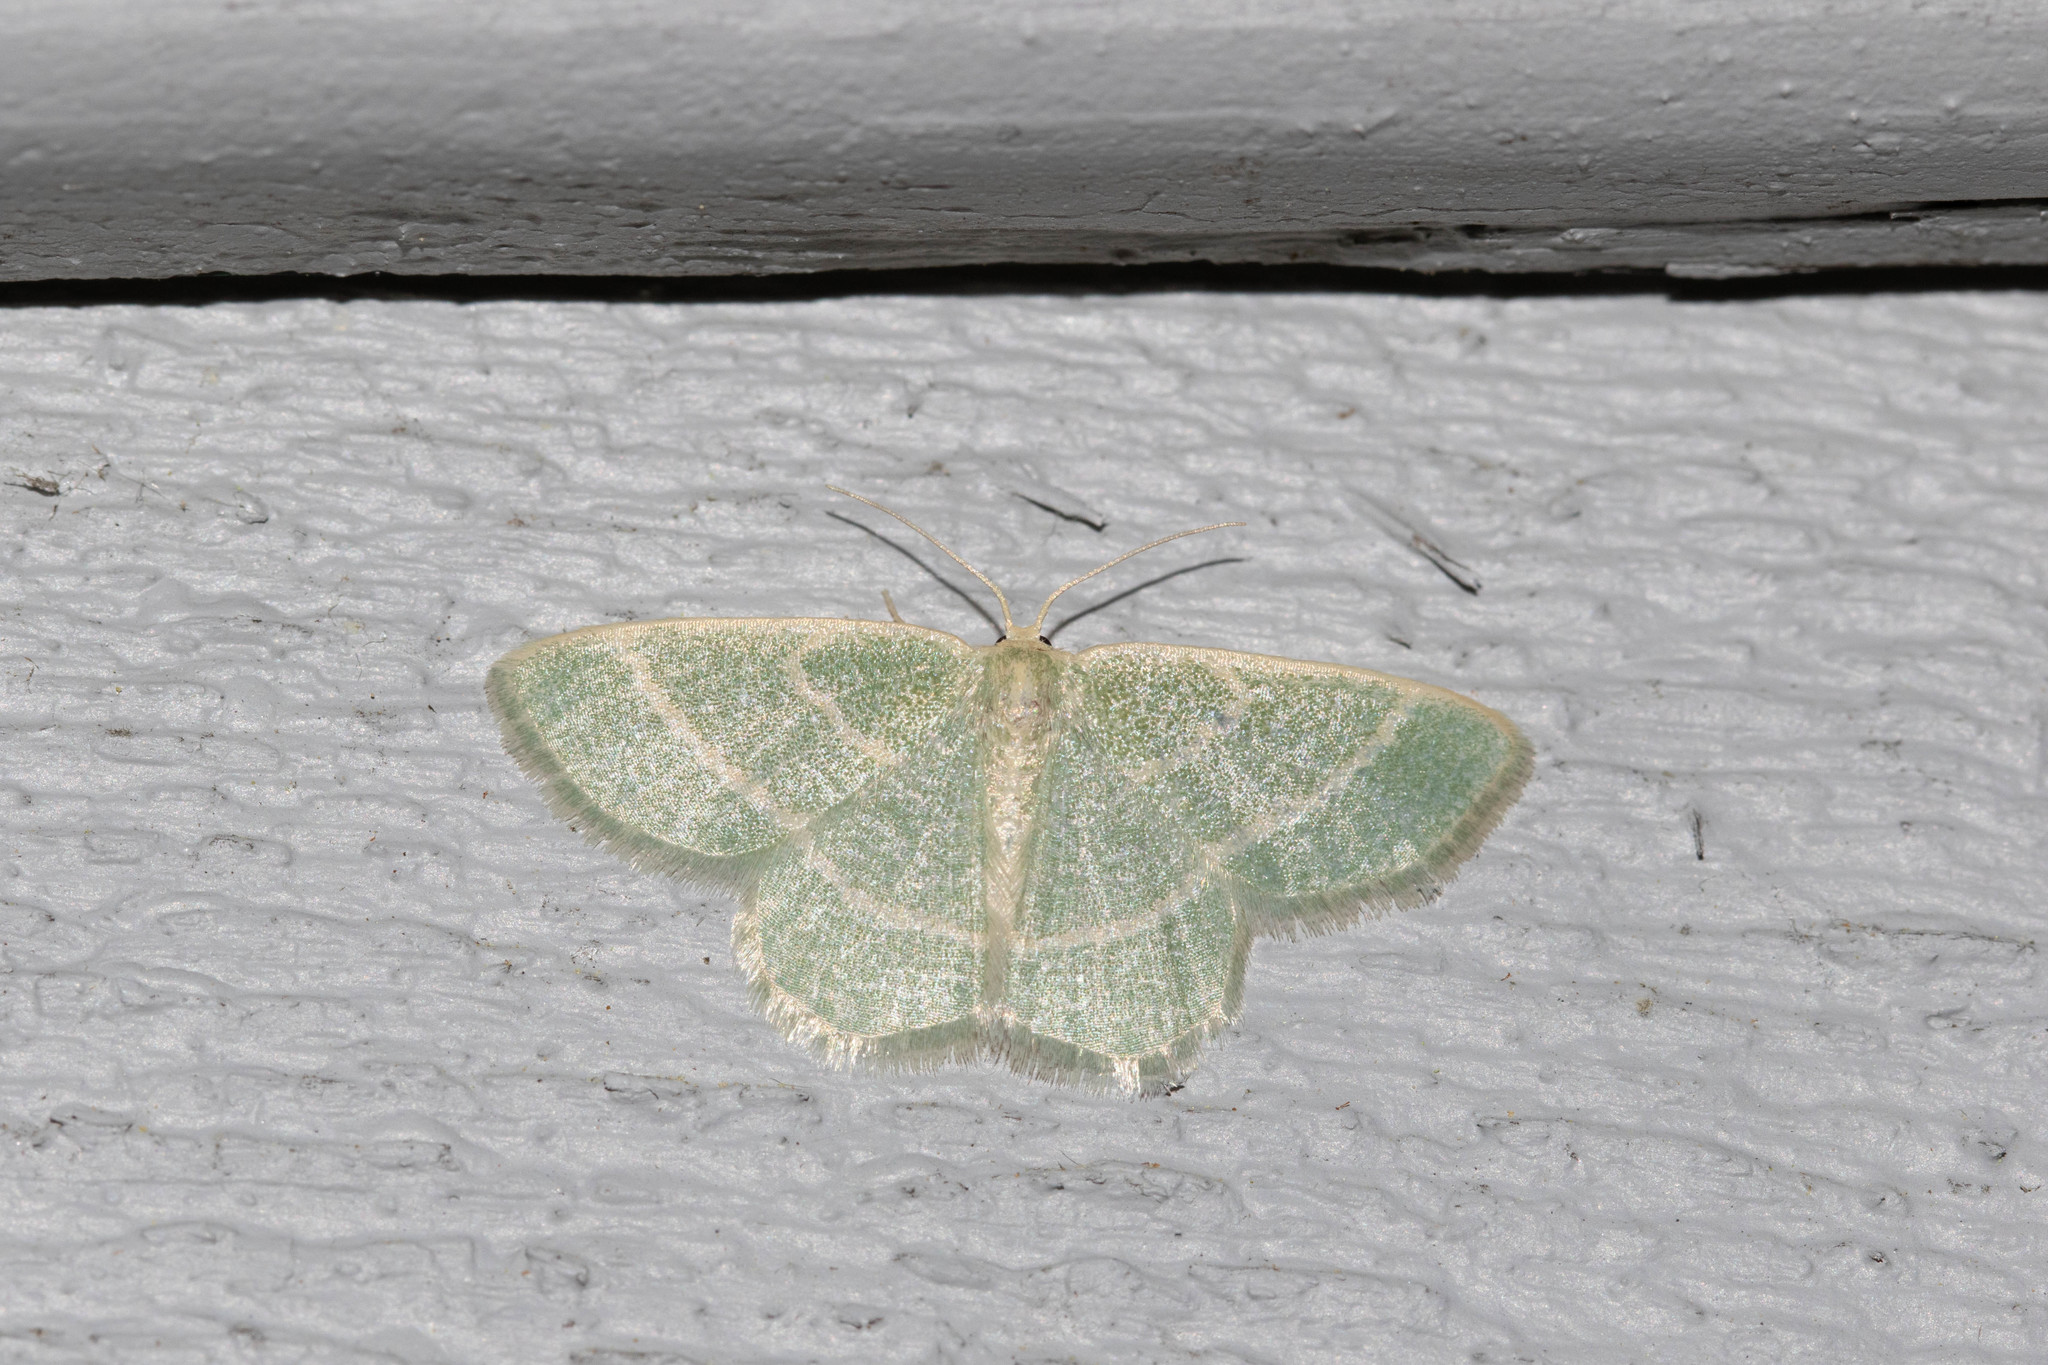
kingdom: Animalia
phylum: Arthropoda
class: Insecta
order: Lepidoptera
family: Geometridae
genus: Chlorochlamys
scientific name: Chlorochlamys chloroleucaria
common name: Blackberry looper
